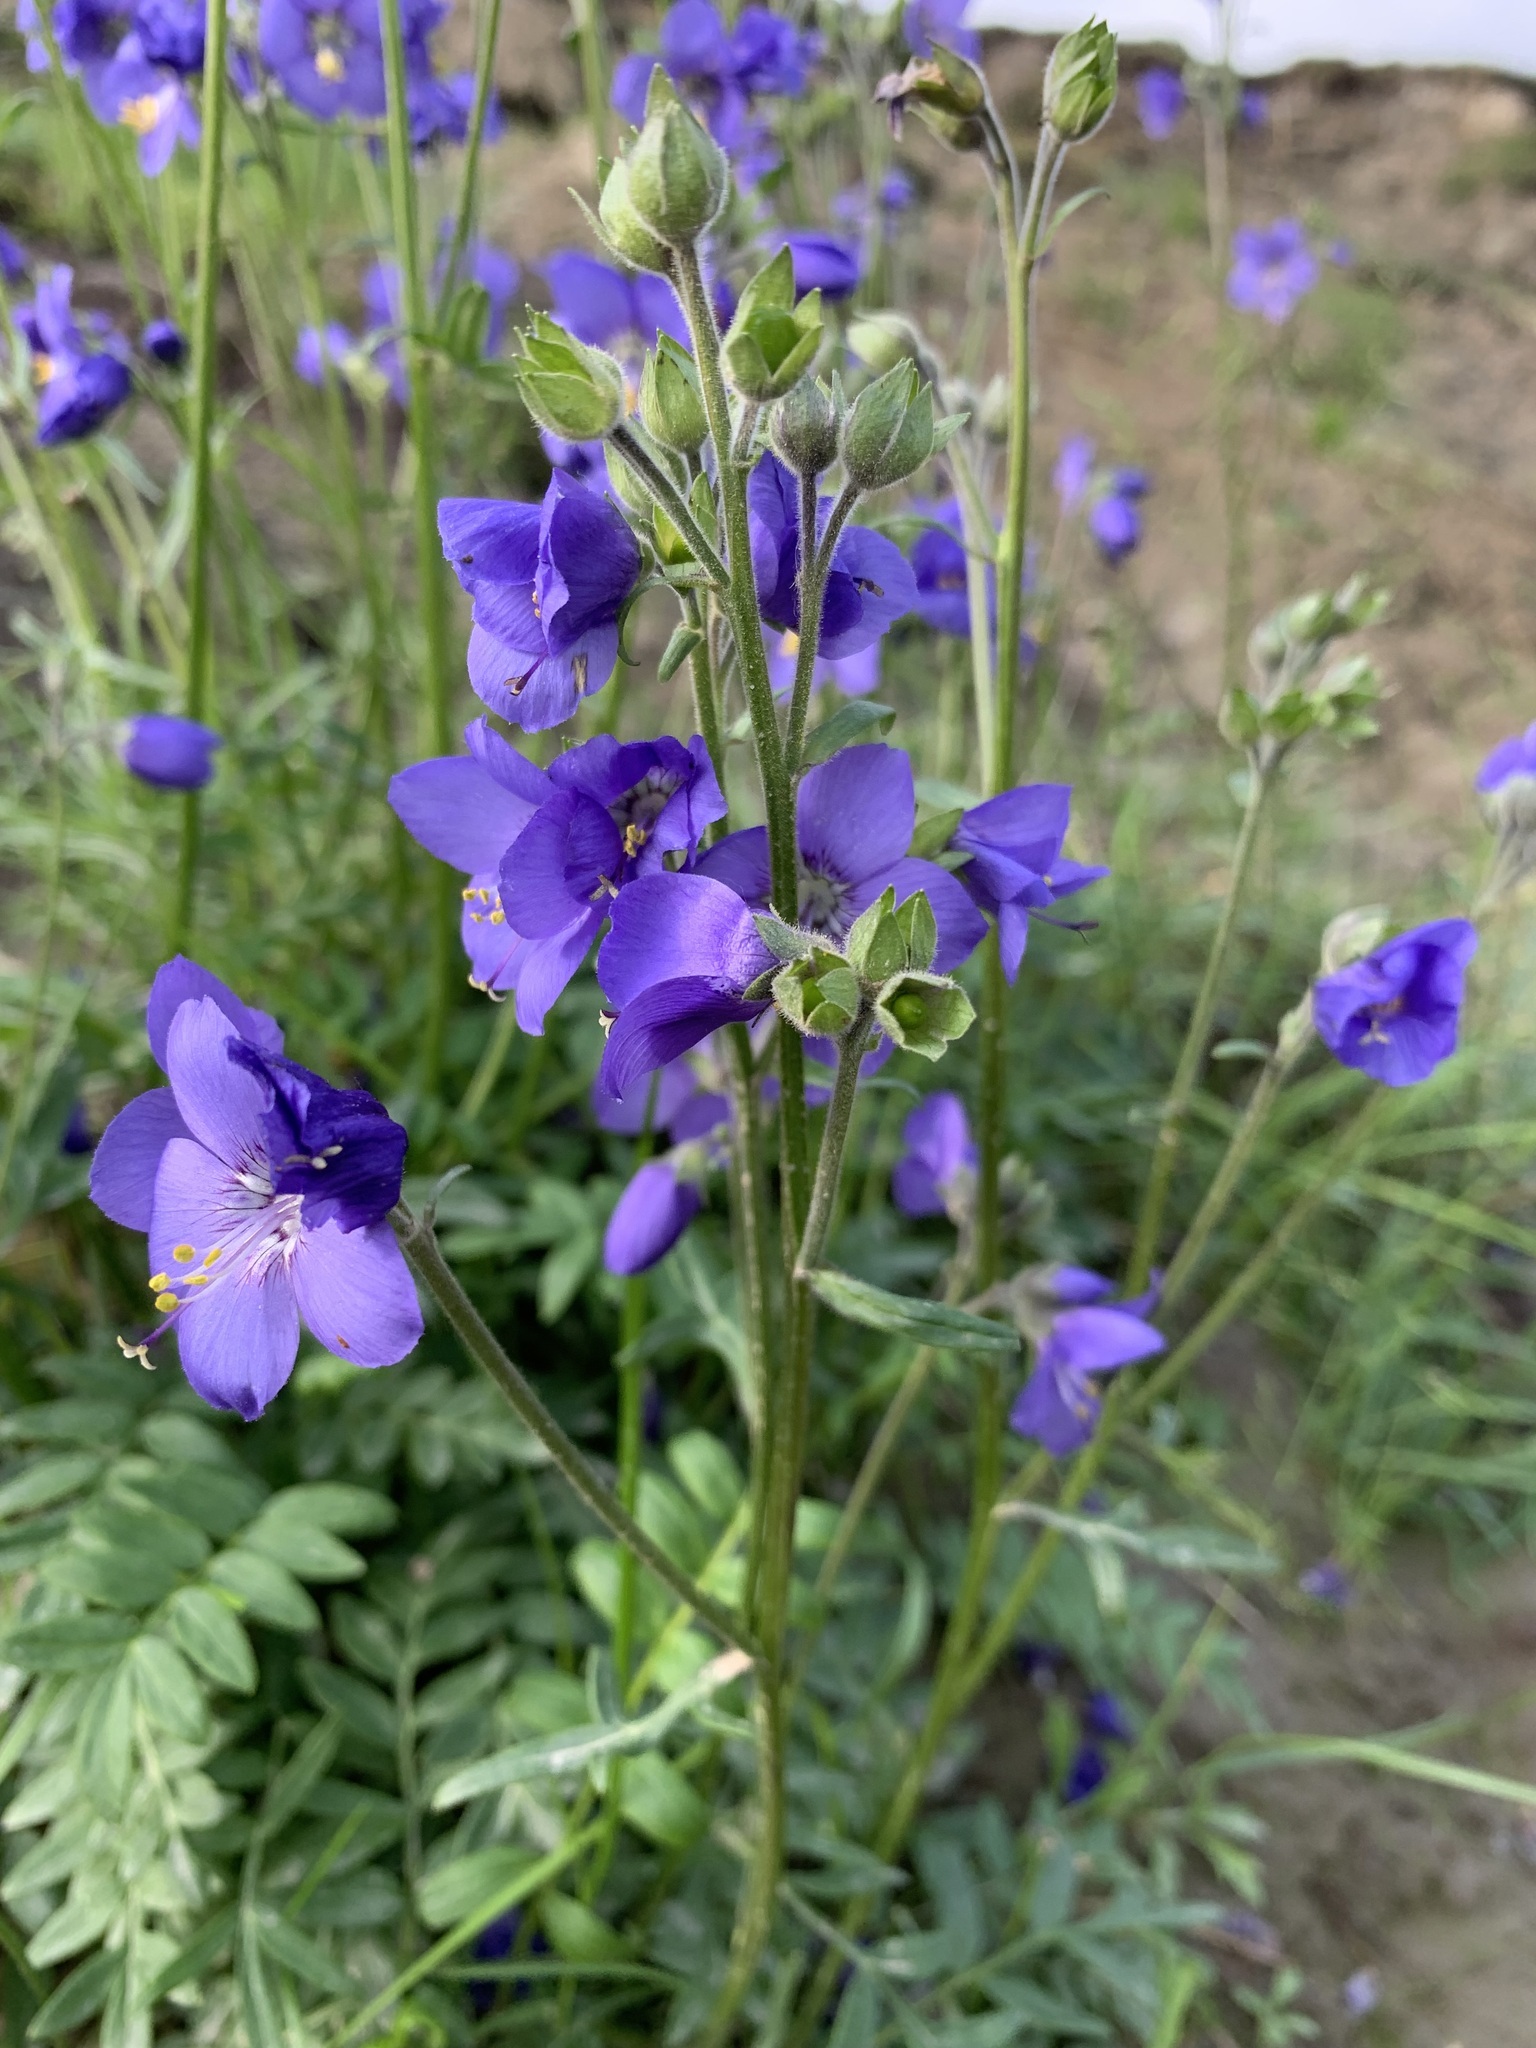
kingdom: Plantae
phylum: Tracheophyta
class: Magnoliopsida
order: Ericales
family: Polemoniaceae
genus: Polemonium
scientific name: Polemonium acutiflorum
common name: Tall jacob's-ladder
